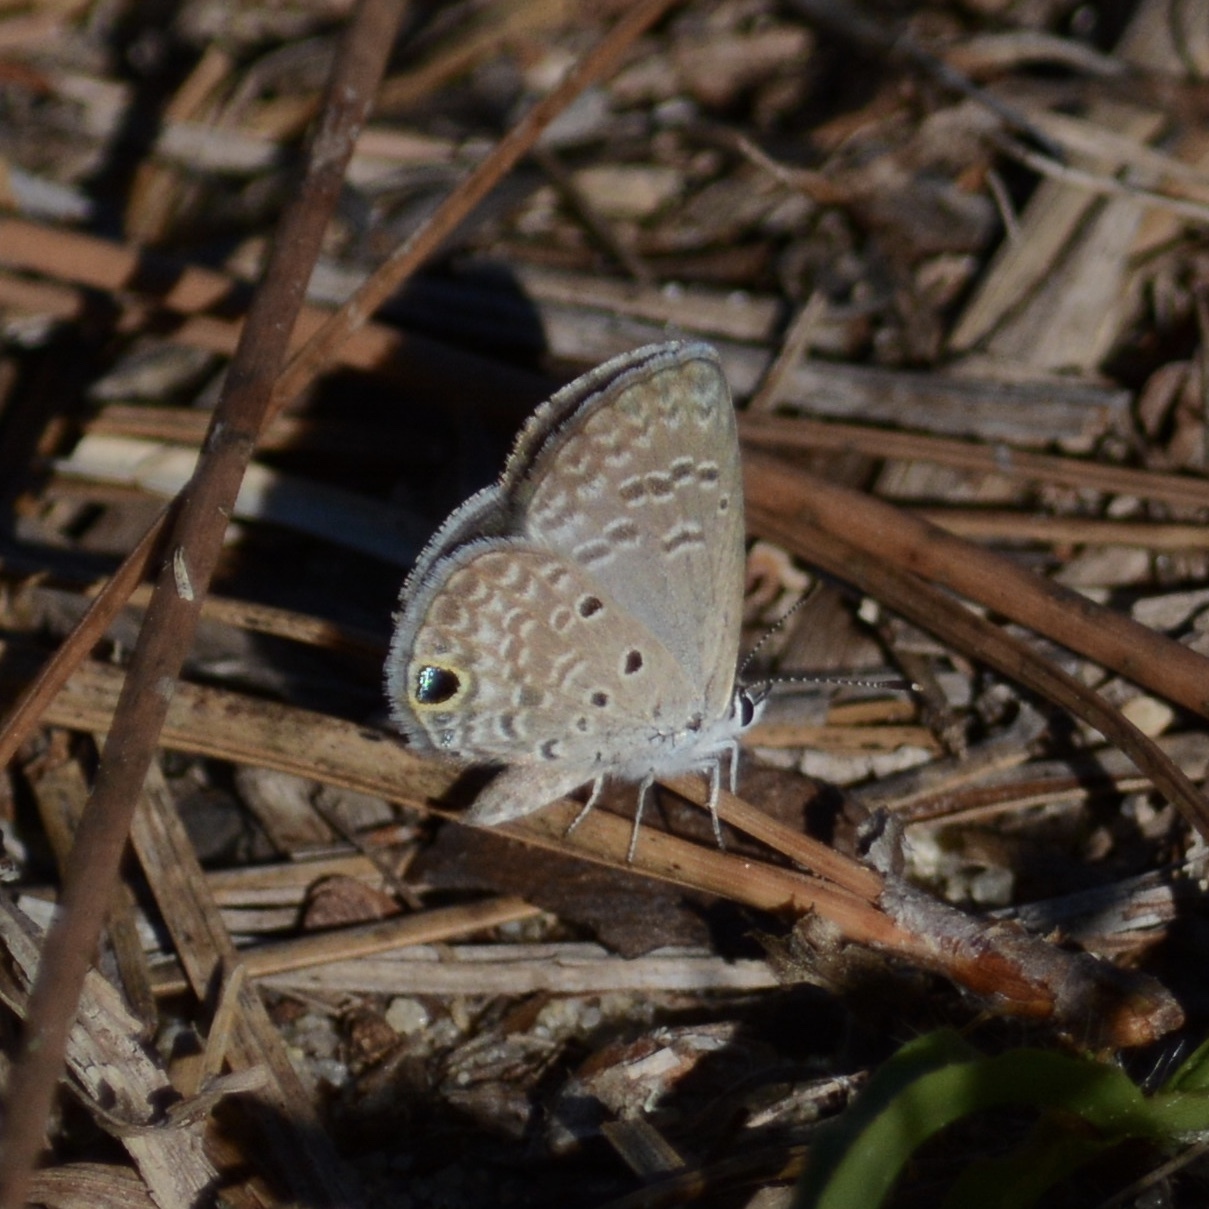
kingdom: Animalia
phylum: Arthropoda
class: Insecta
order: Lepidoptera
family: Lycaenidae
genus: Hemiargus
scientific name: Hemiargus ceraunus
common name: Ceraunus blue
